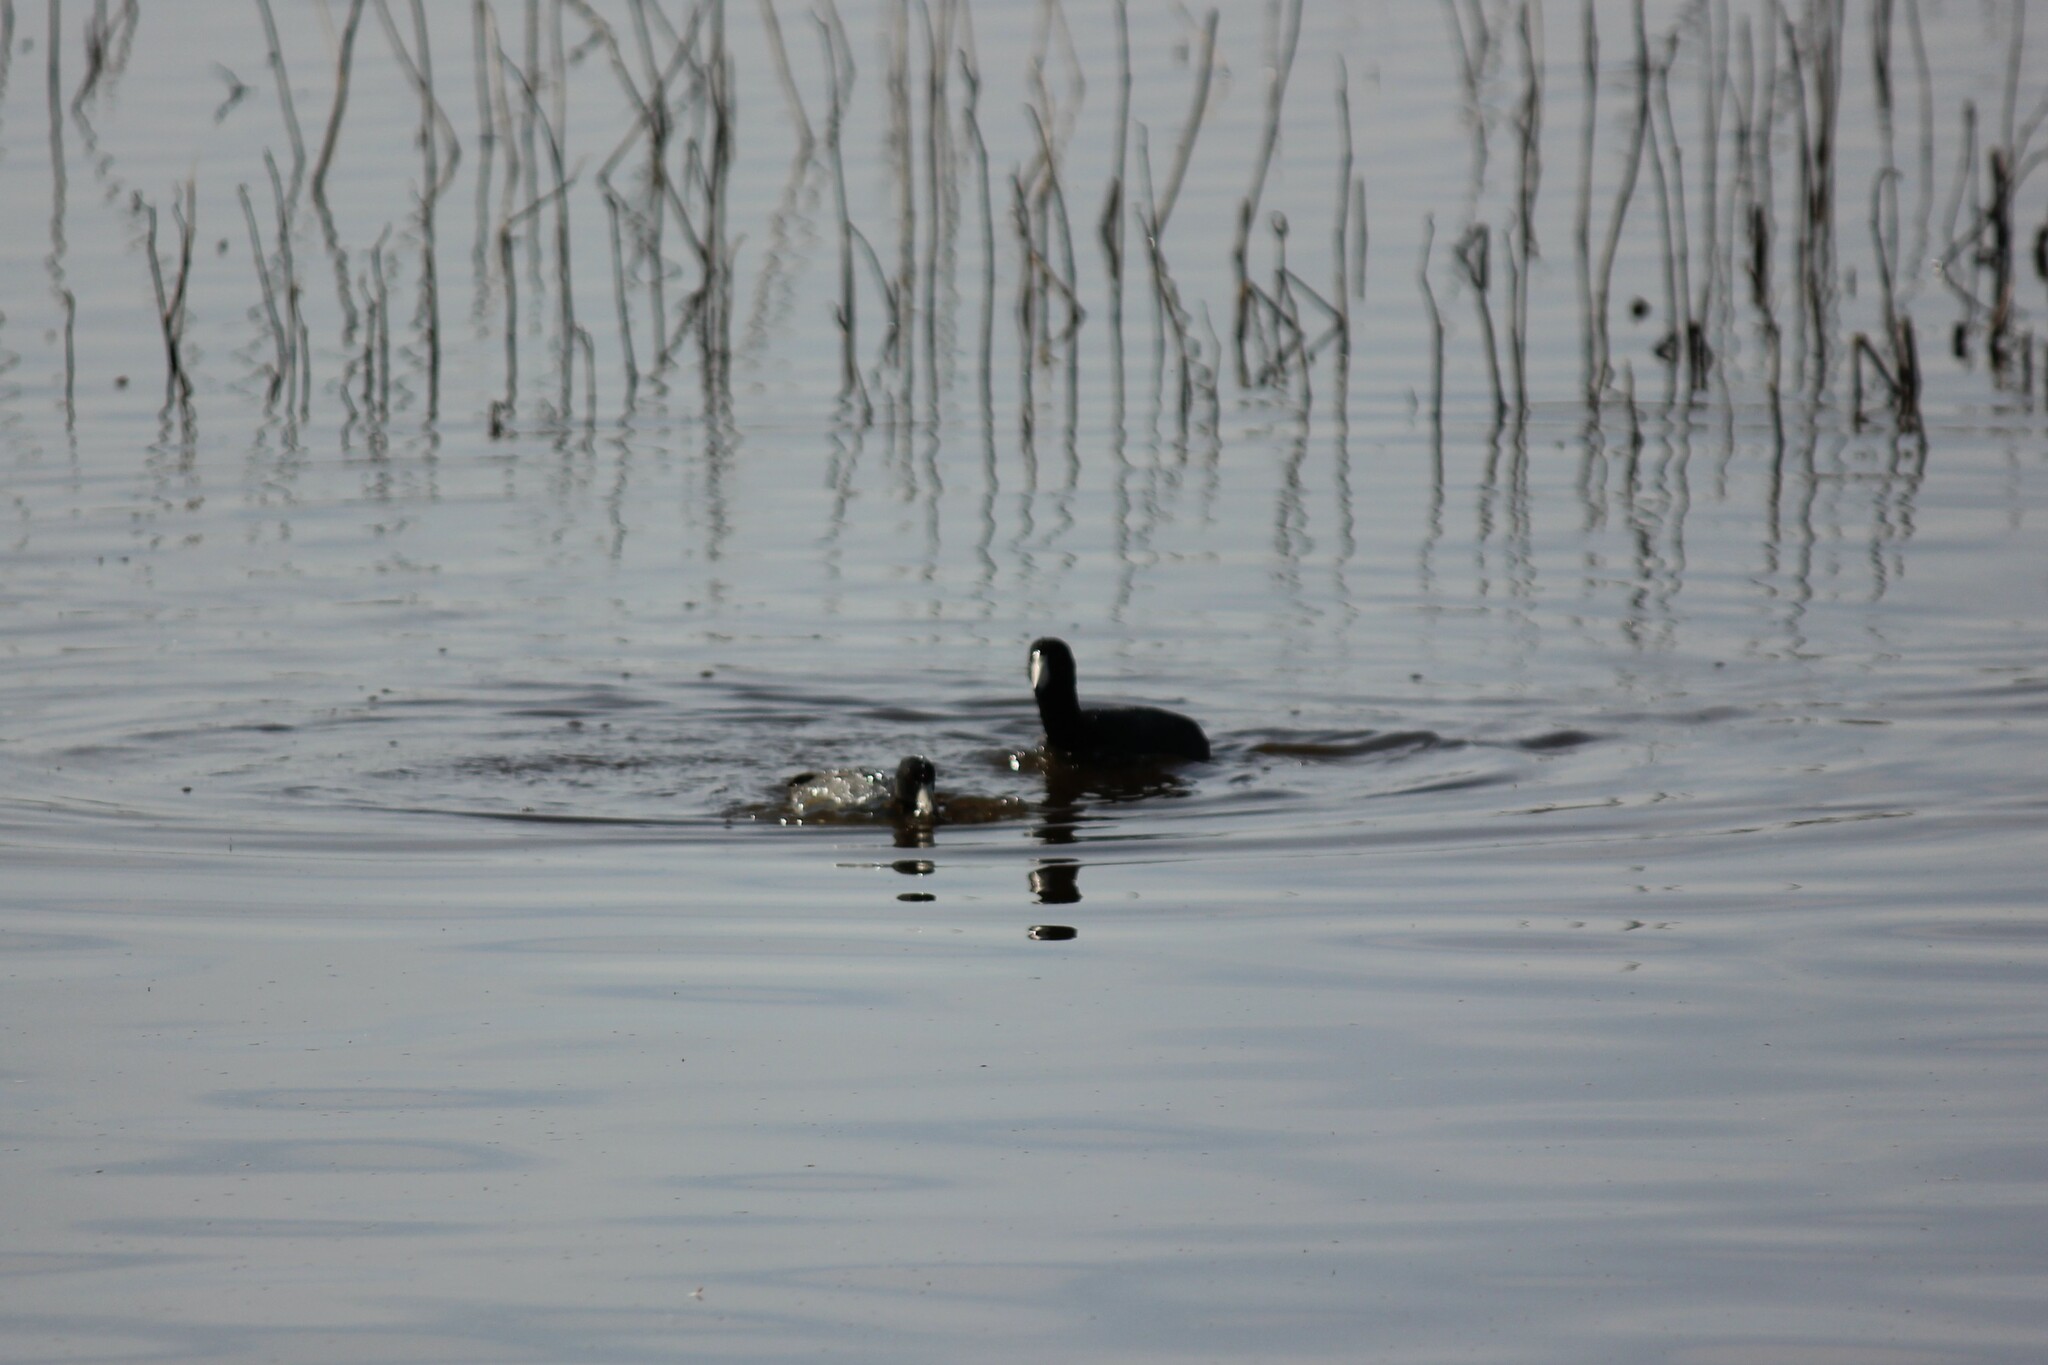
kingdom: Animalia
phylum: Chordata
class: Aves
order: Gruiformes
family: Rallidae
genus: Fulica
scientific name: Fulica americana
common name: American coot
